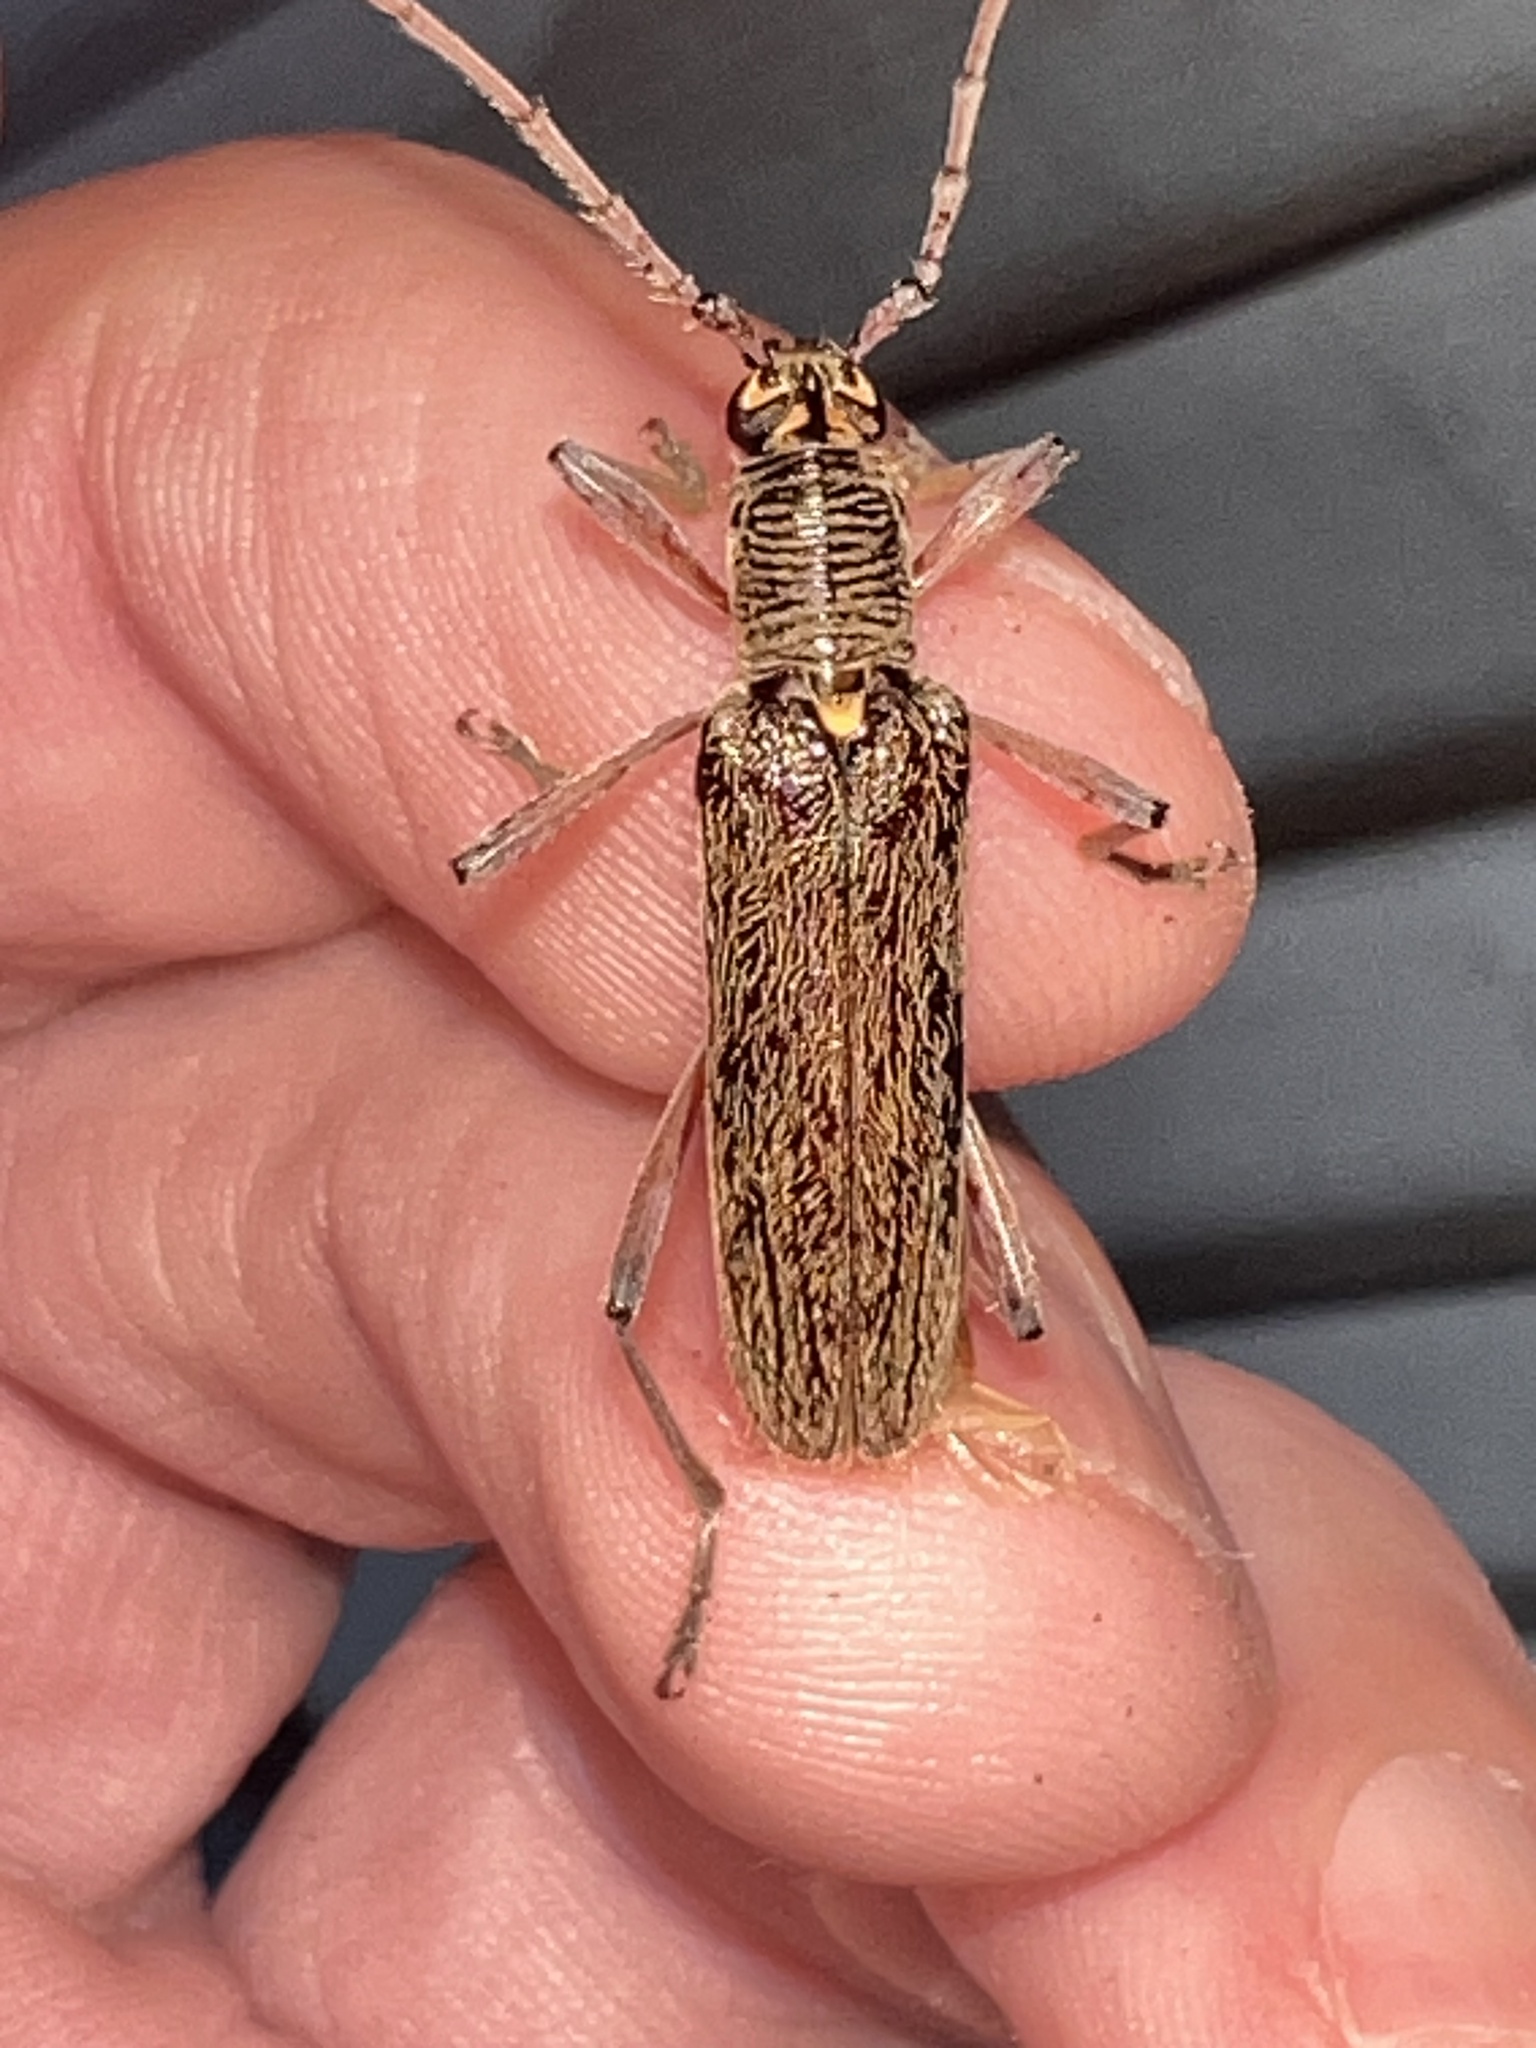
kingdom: Animalia
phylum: Arthropoda
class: Insecta
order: Coleoptera
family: Cerambycidae
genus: Oemona
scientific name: Oemona hirta
